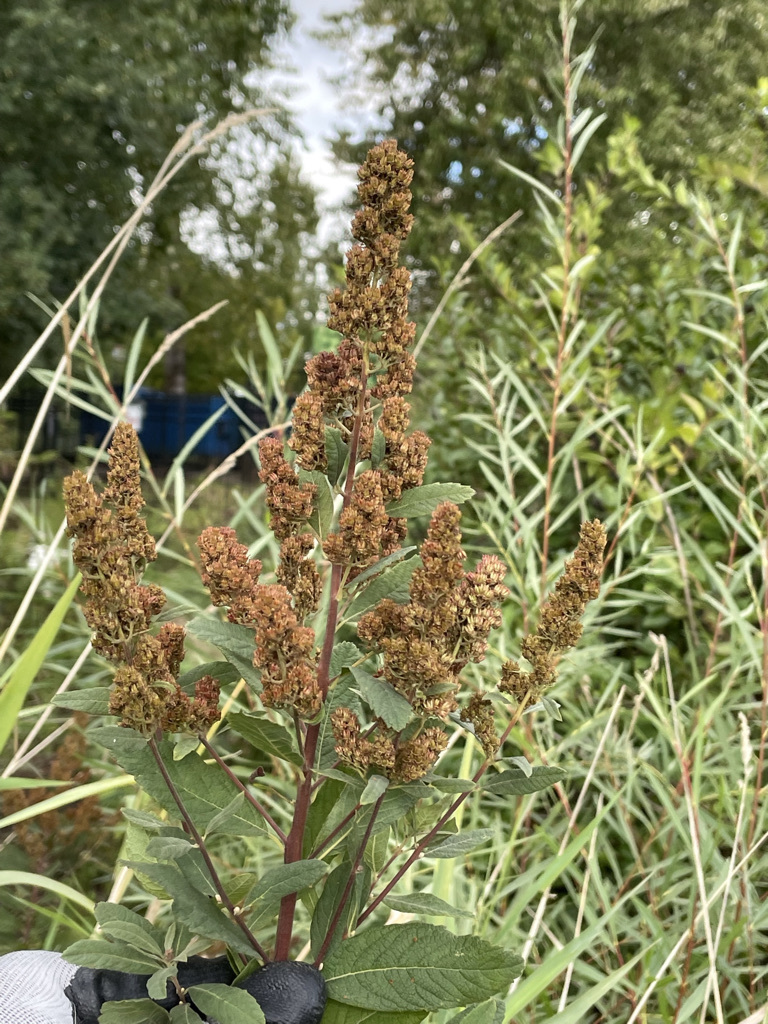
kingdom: Plantae
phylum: Tracheophyta
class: Magnoliopsida
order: Rosales
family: Rosaceae
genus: Spiraea
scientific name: Spiraea douglasii
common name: Steeplebush
